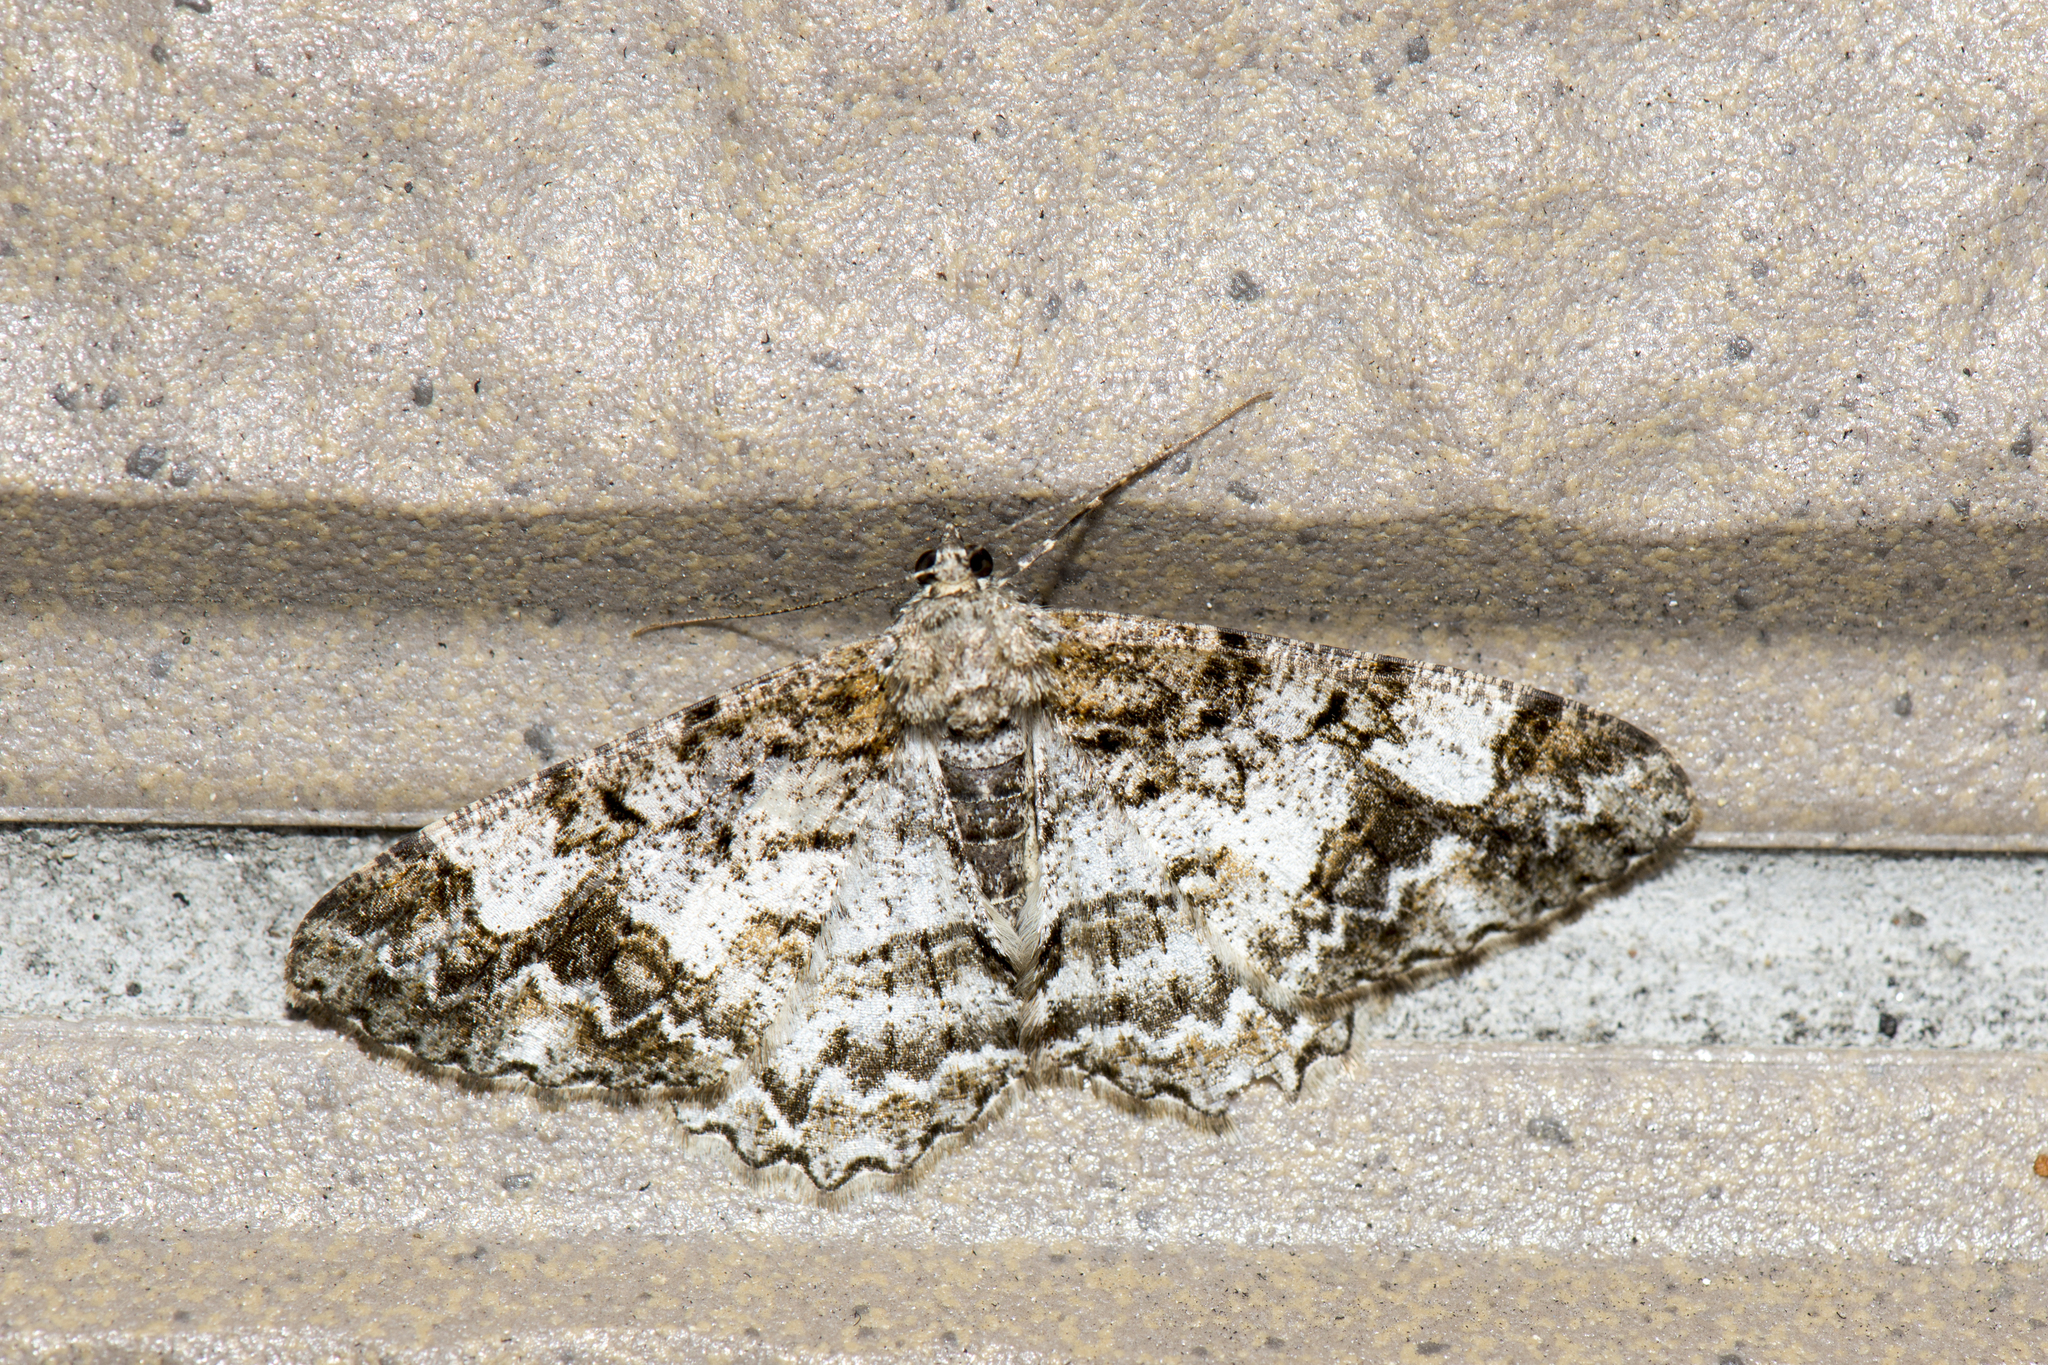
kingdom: Animalia
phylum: Arthropoda
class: Insecta
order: Lepidoptera
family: Geometridae
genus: Alcis
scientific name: Alcis admissaria
